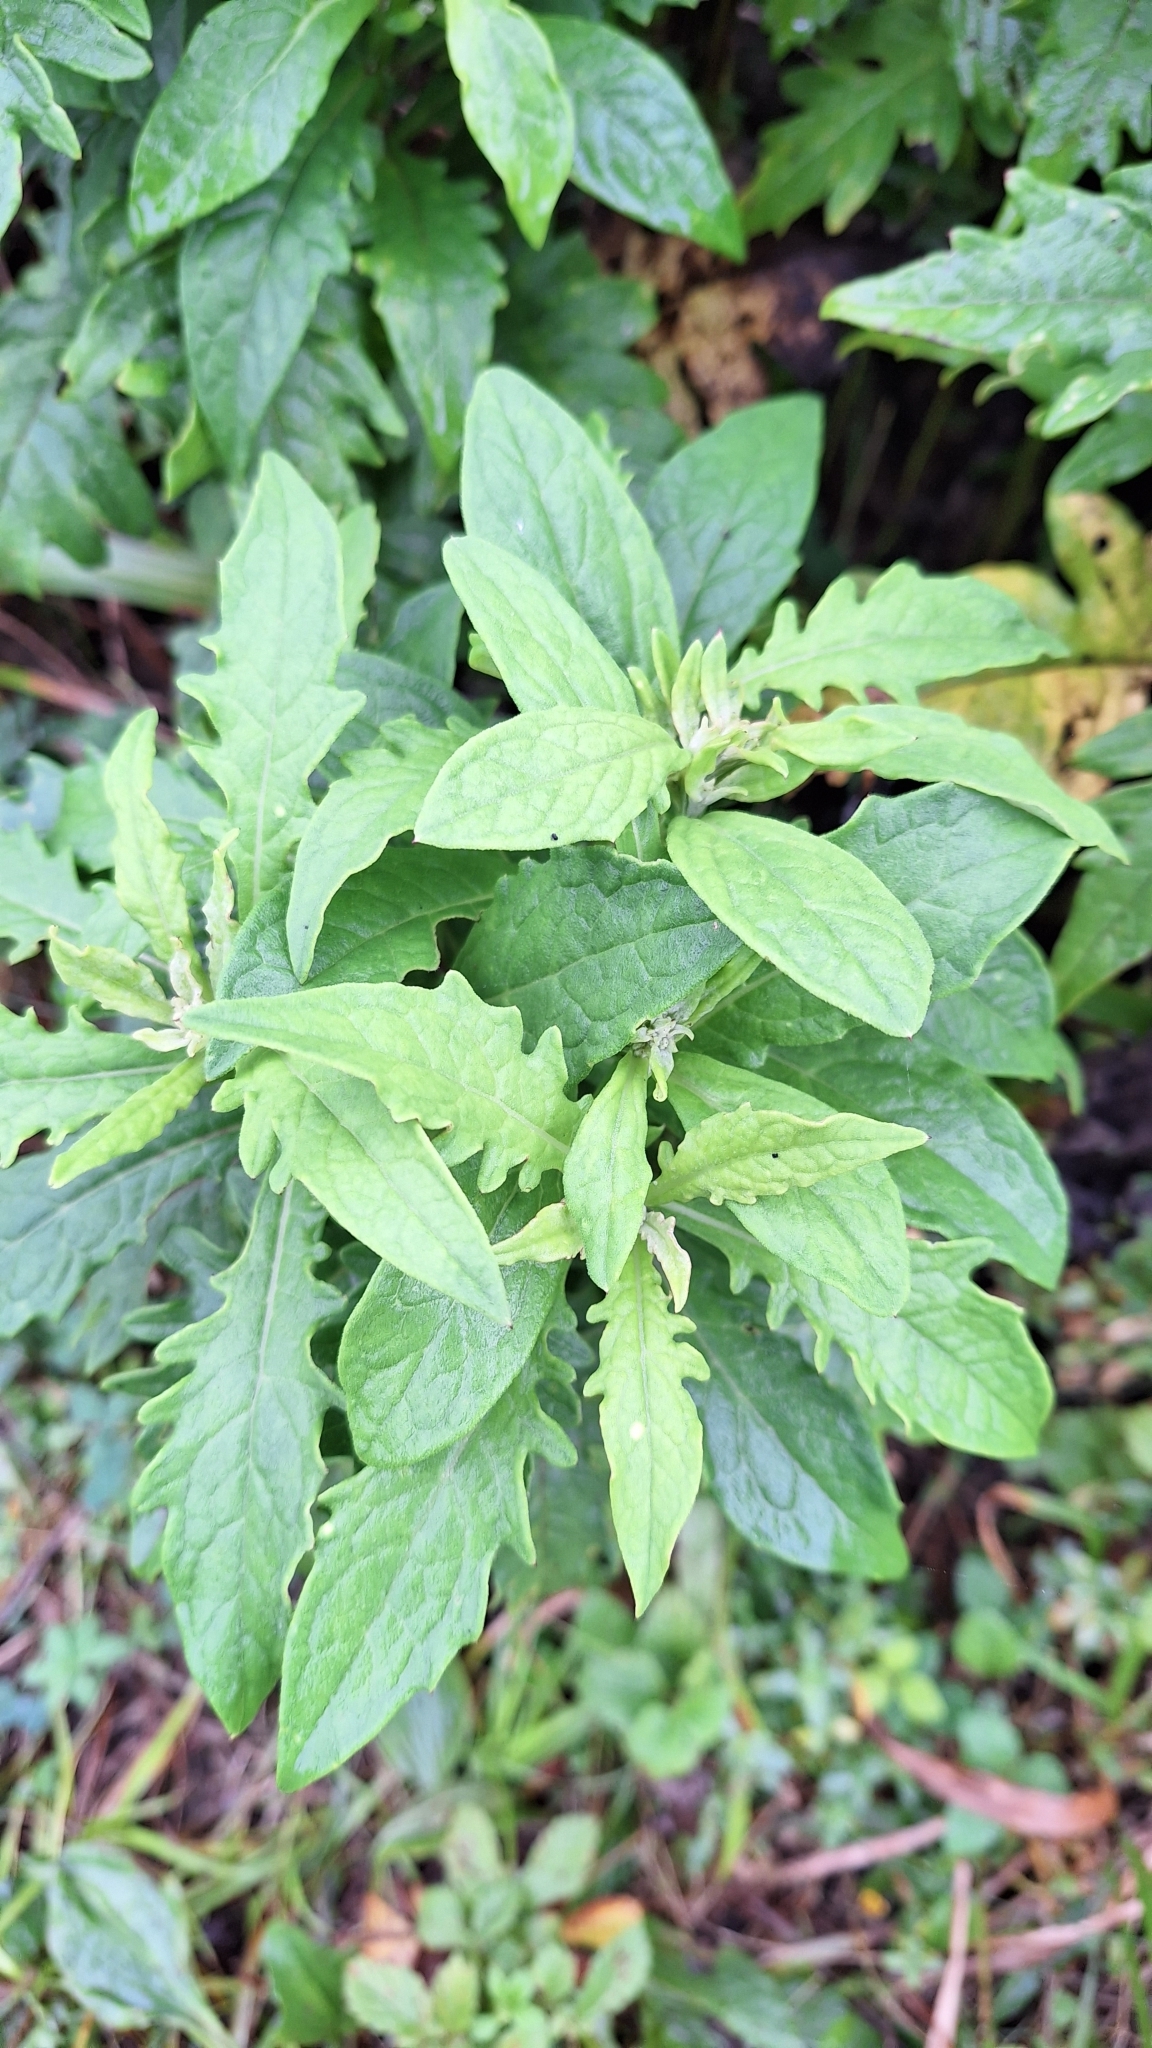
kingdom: Plantae
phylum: Tracheophyta
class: Magnoliopsida
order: Asterales
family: Asteraceae
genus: Saussurea
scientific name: Saussurea pulchella
